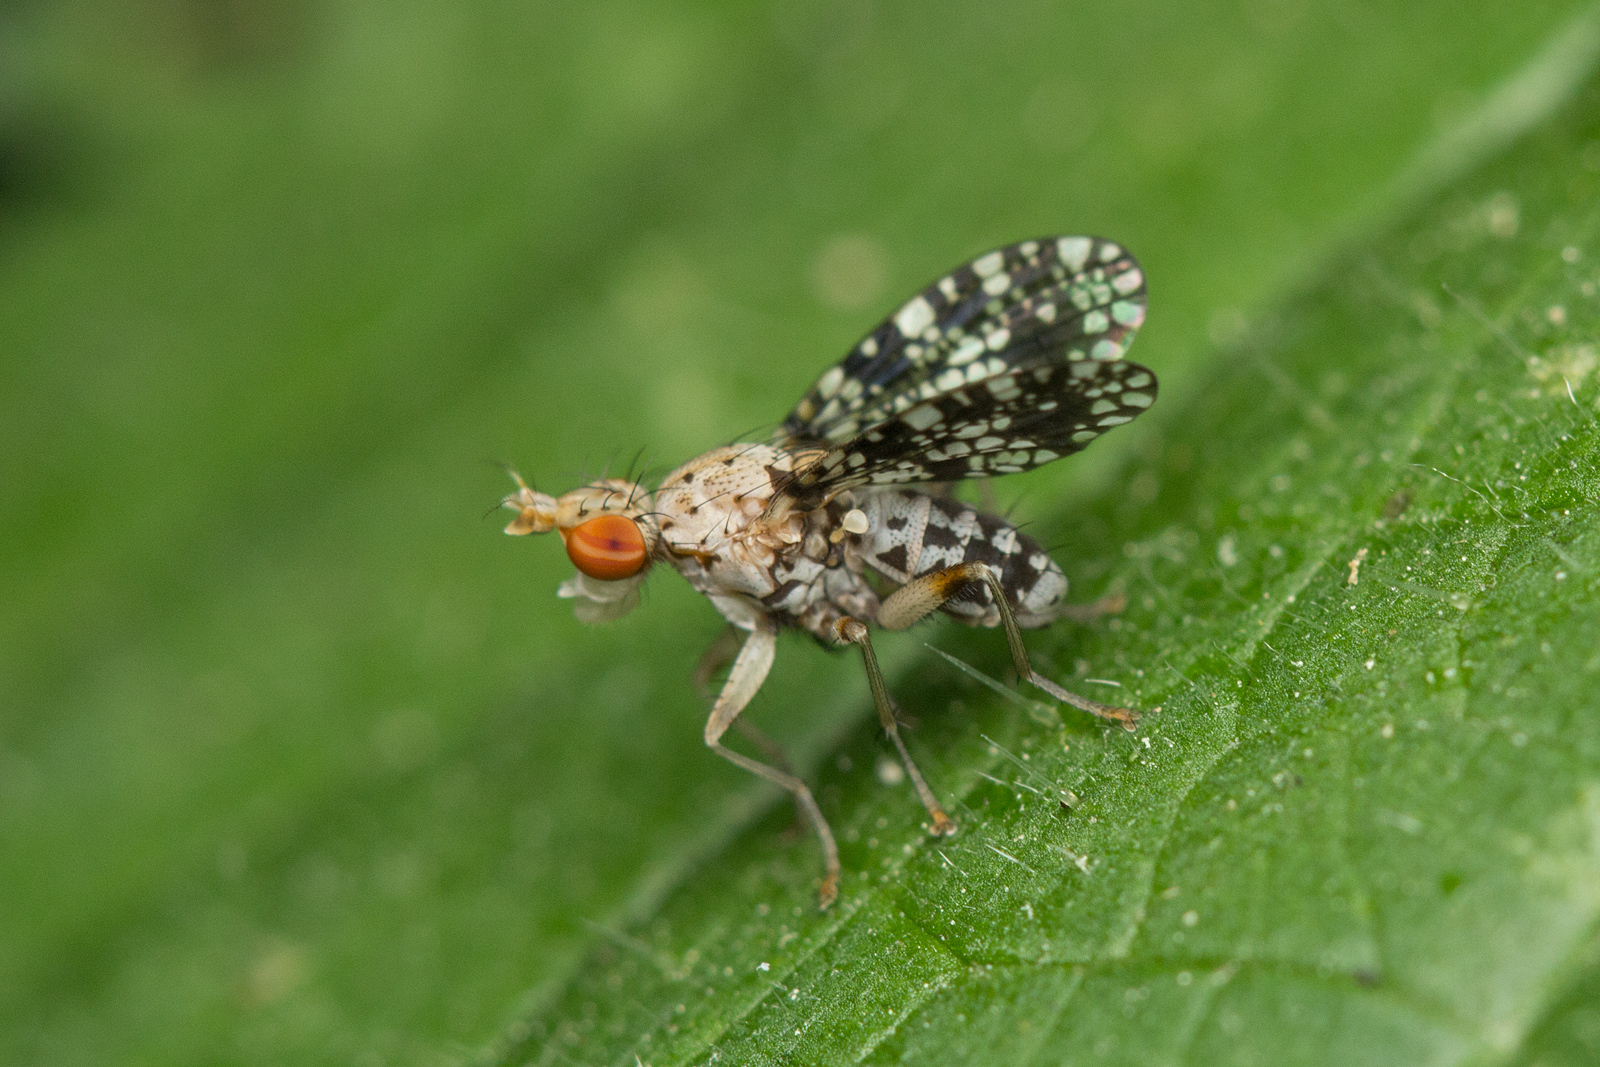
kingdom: Animalia
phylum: Arthropoda
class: Insecta
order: Diptera
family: Sciomyzidae
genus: Trypetoptera
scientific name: Trypetoptera punctulata
